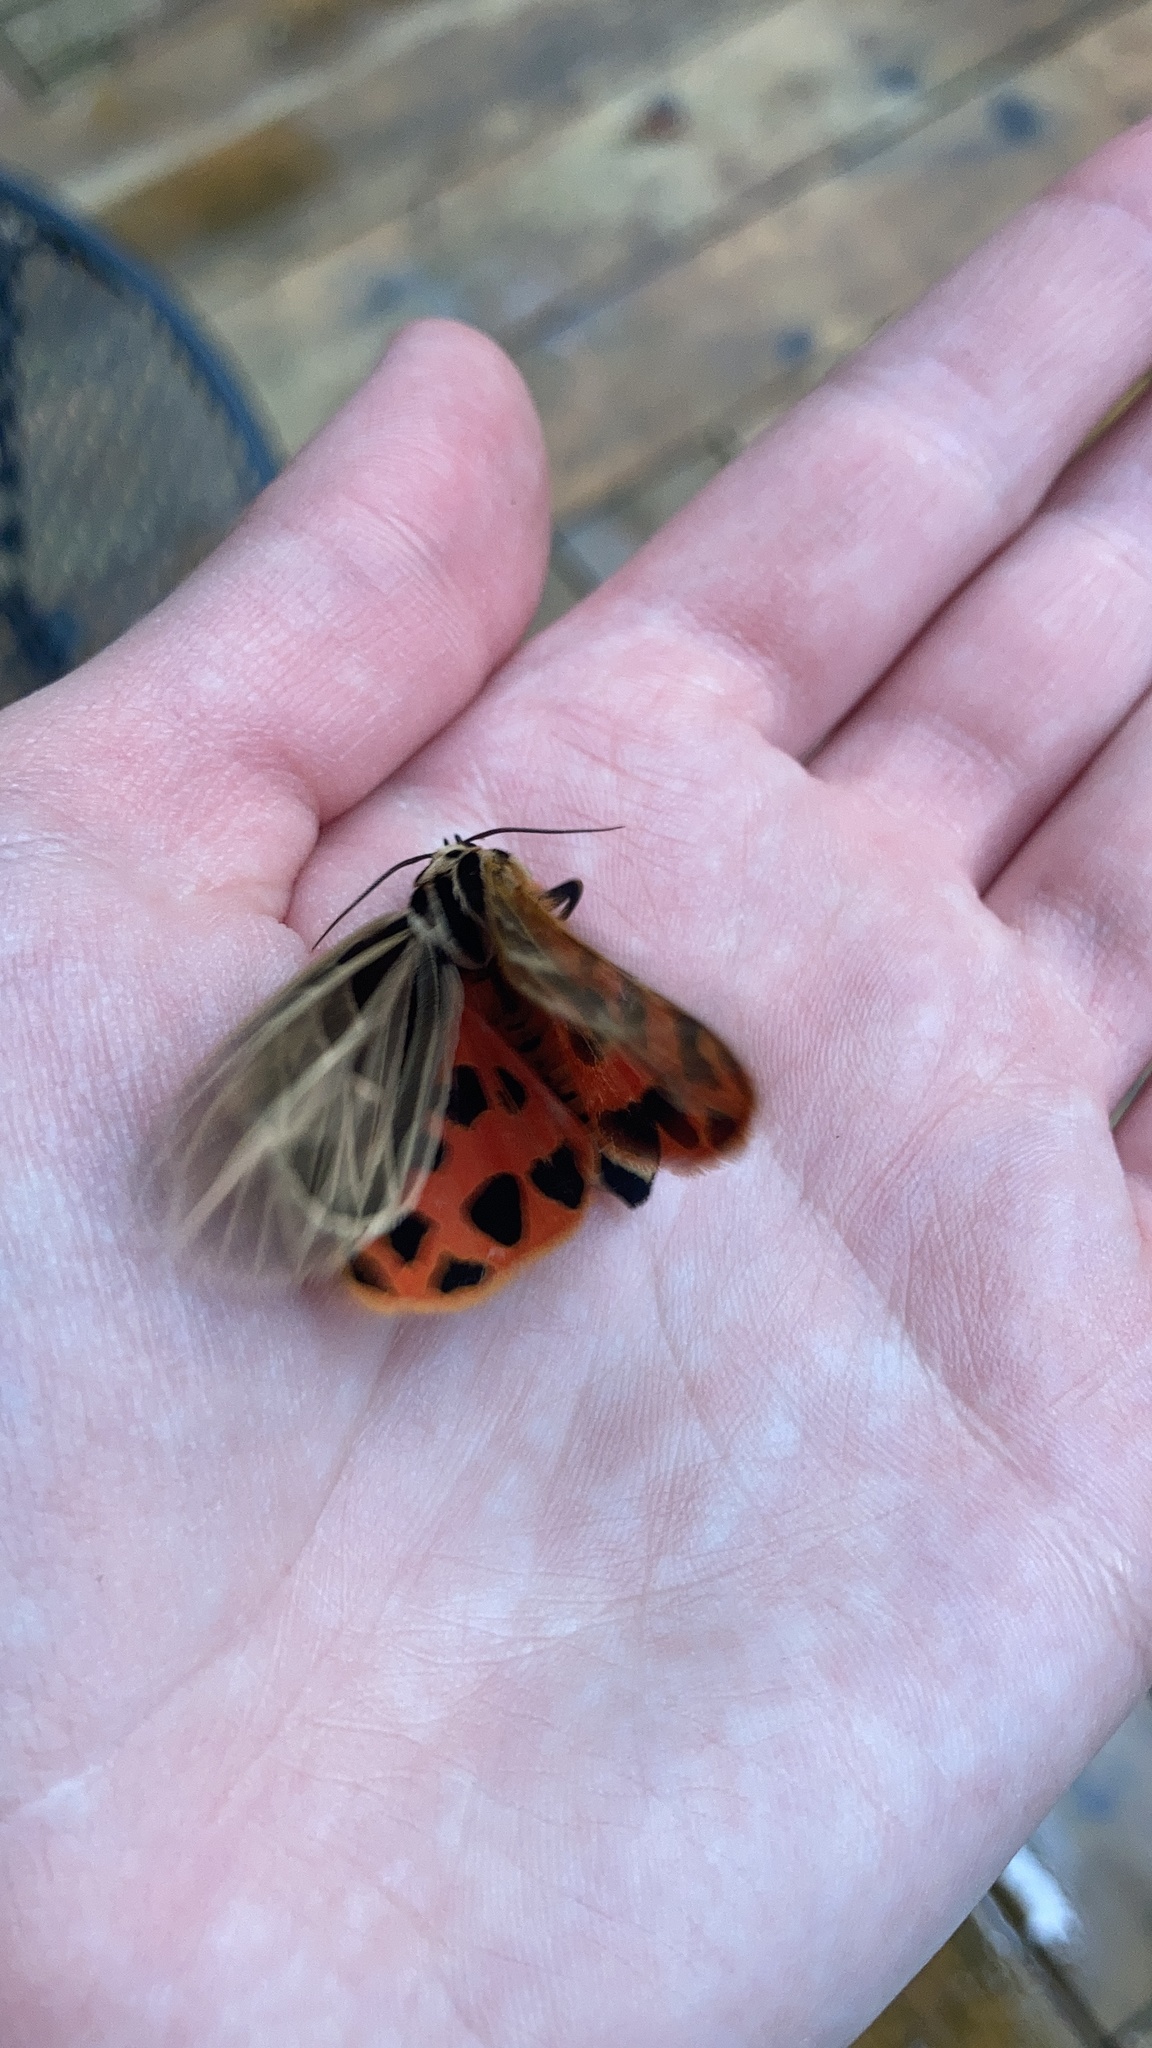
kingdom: Animalia
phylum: Arthropoda
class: Insecta
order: Lepidoptera
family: Erebidae
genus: Grammia
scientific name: Grammia virgo
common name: Virgin tiger moth
